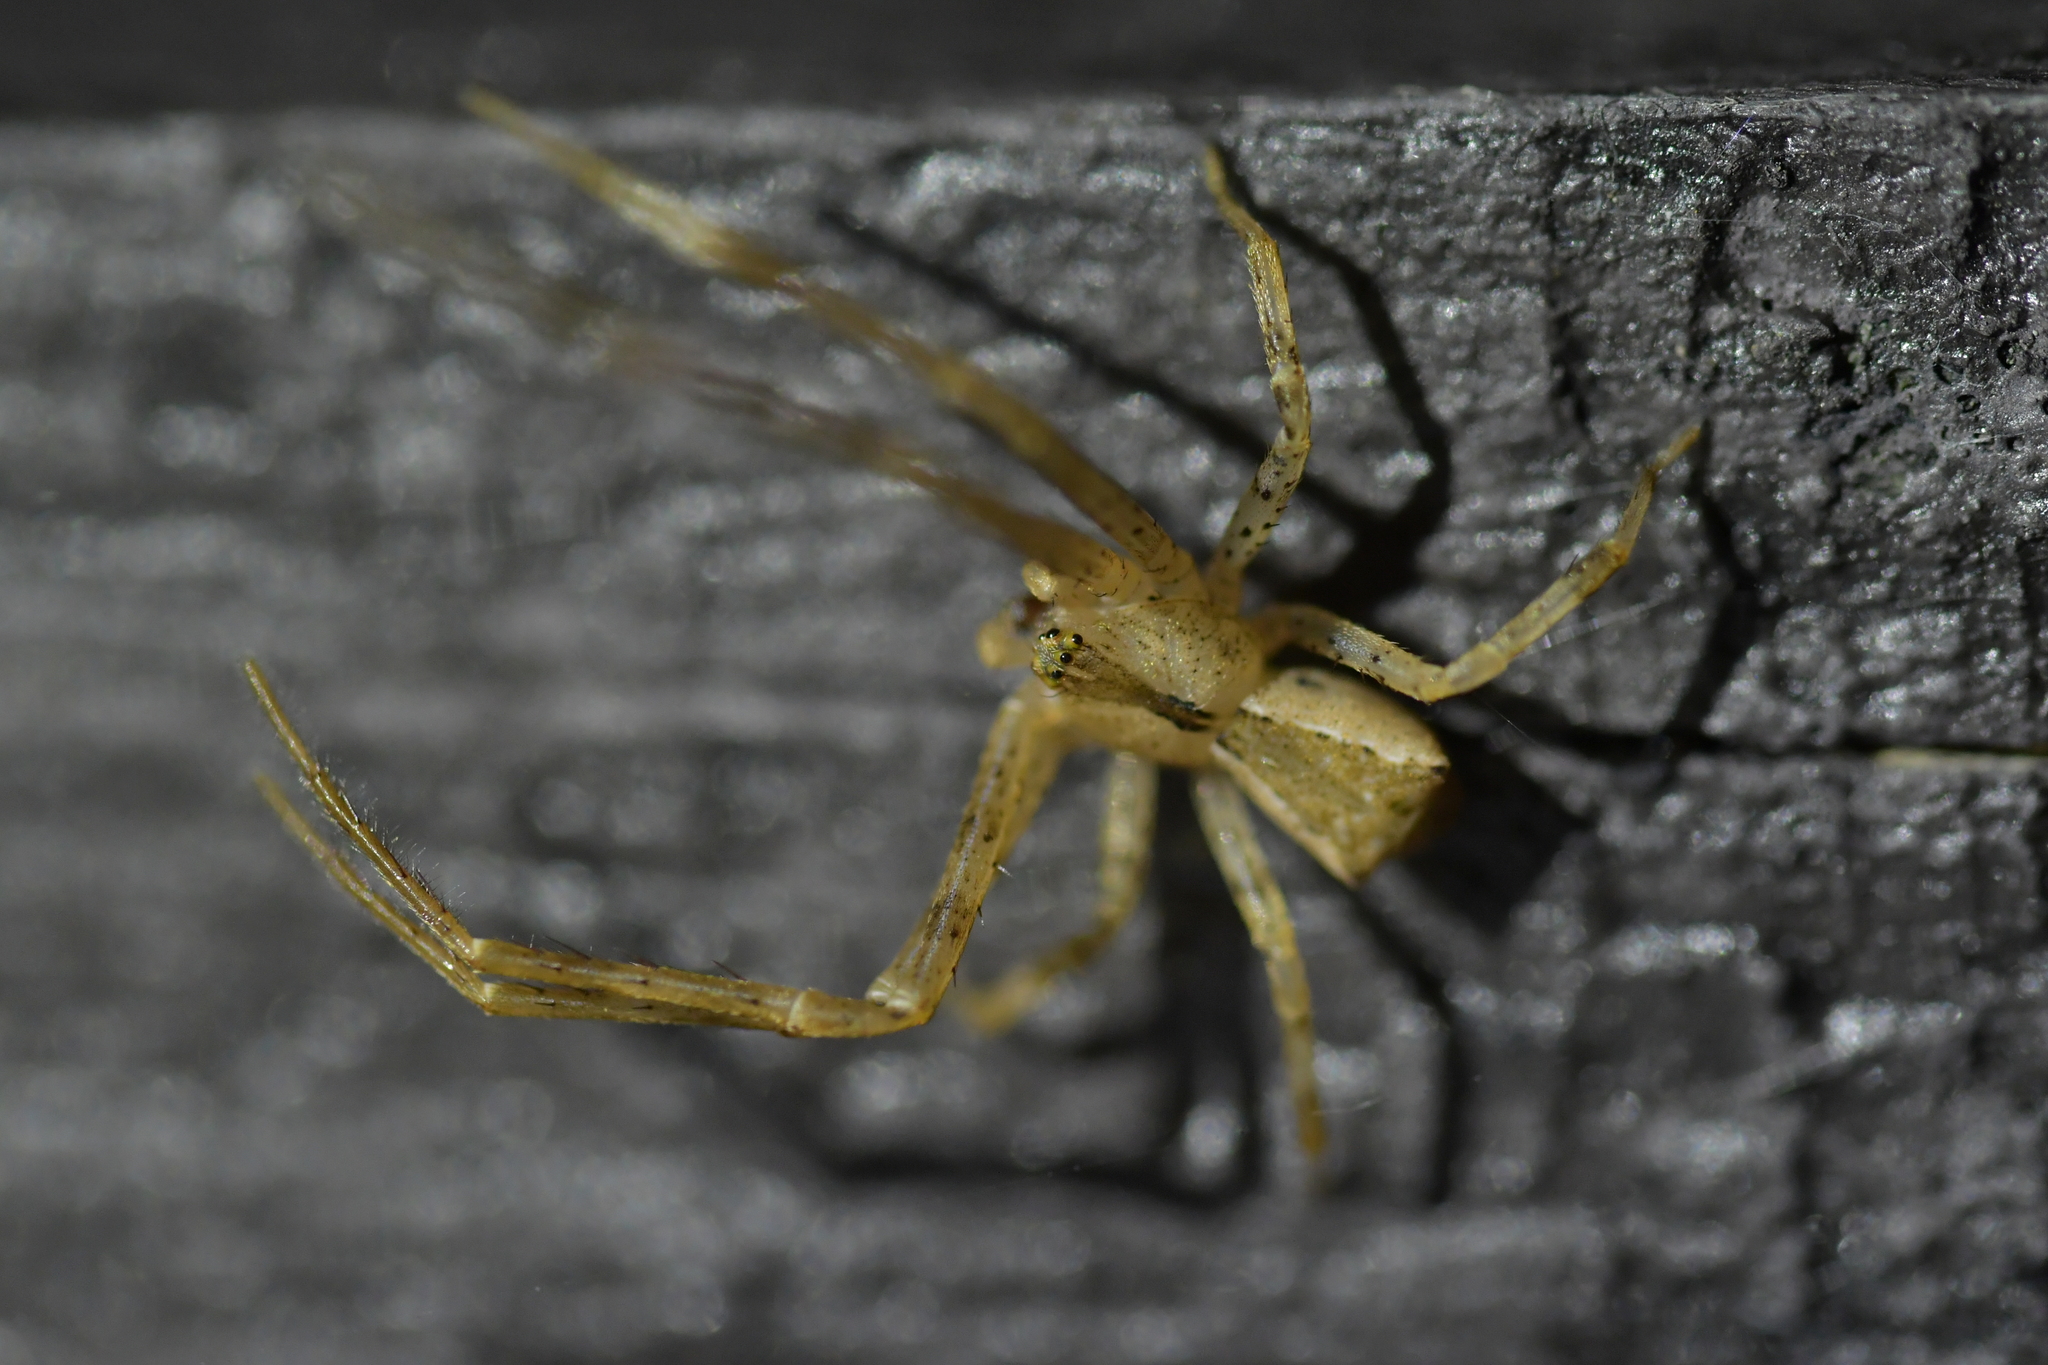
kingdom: Animalia
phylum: Arthropoda
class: Arachnida
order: Araneae
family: Thomisidae
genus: Sidymella
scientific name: Sidymella longipes
